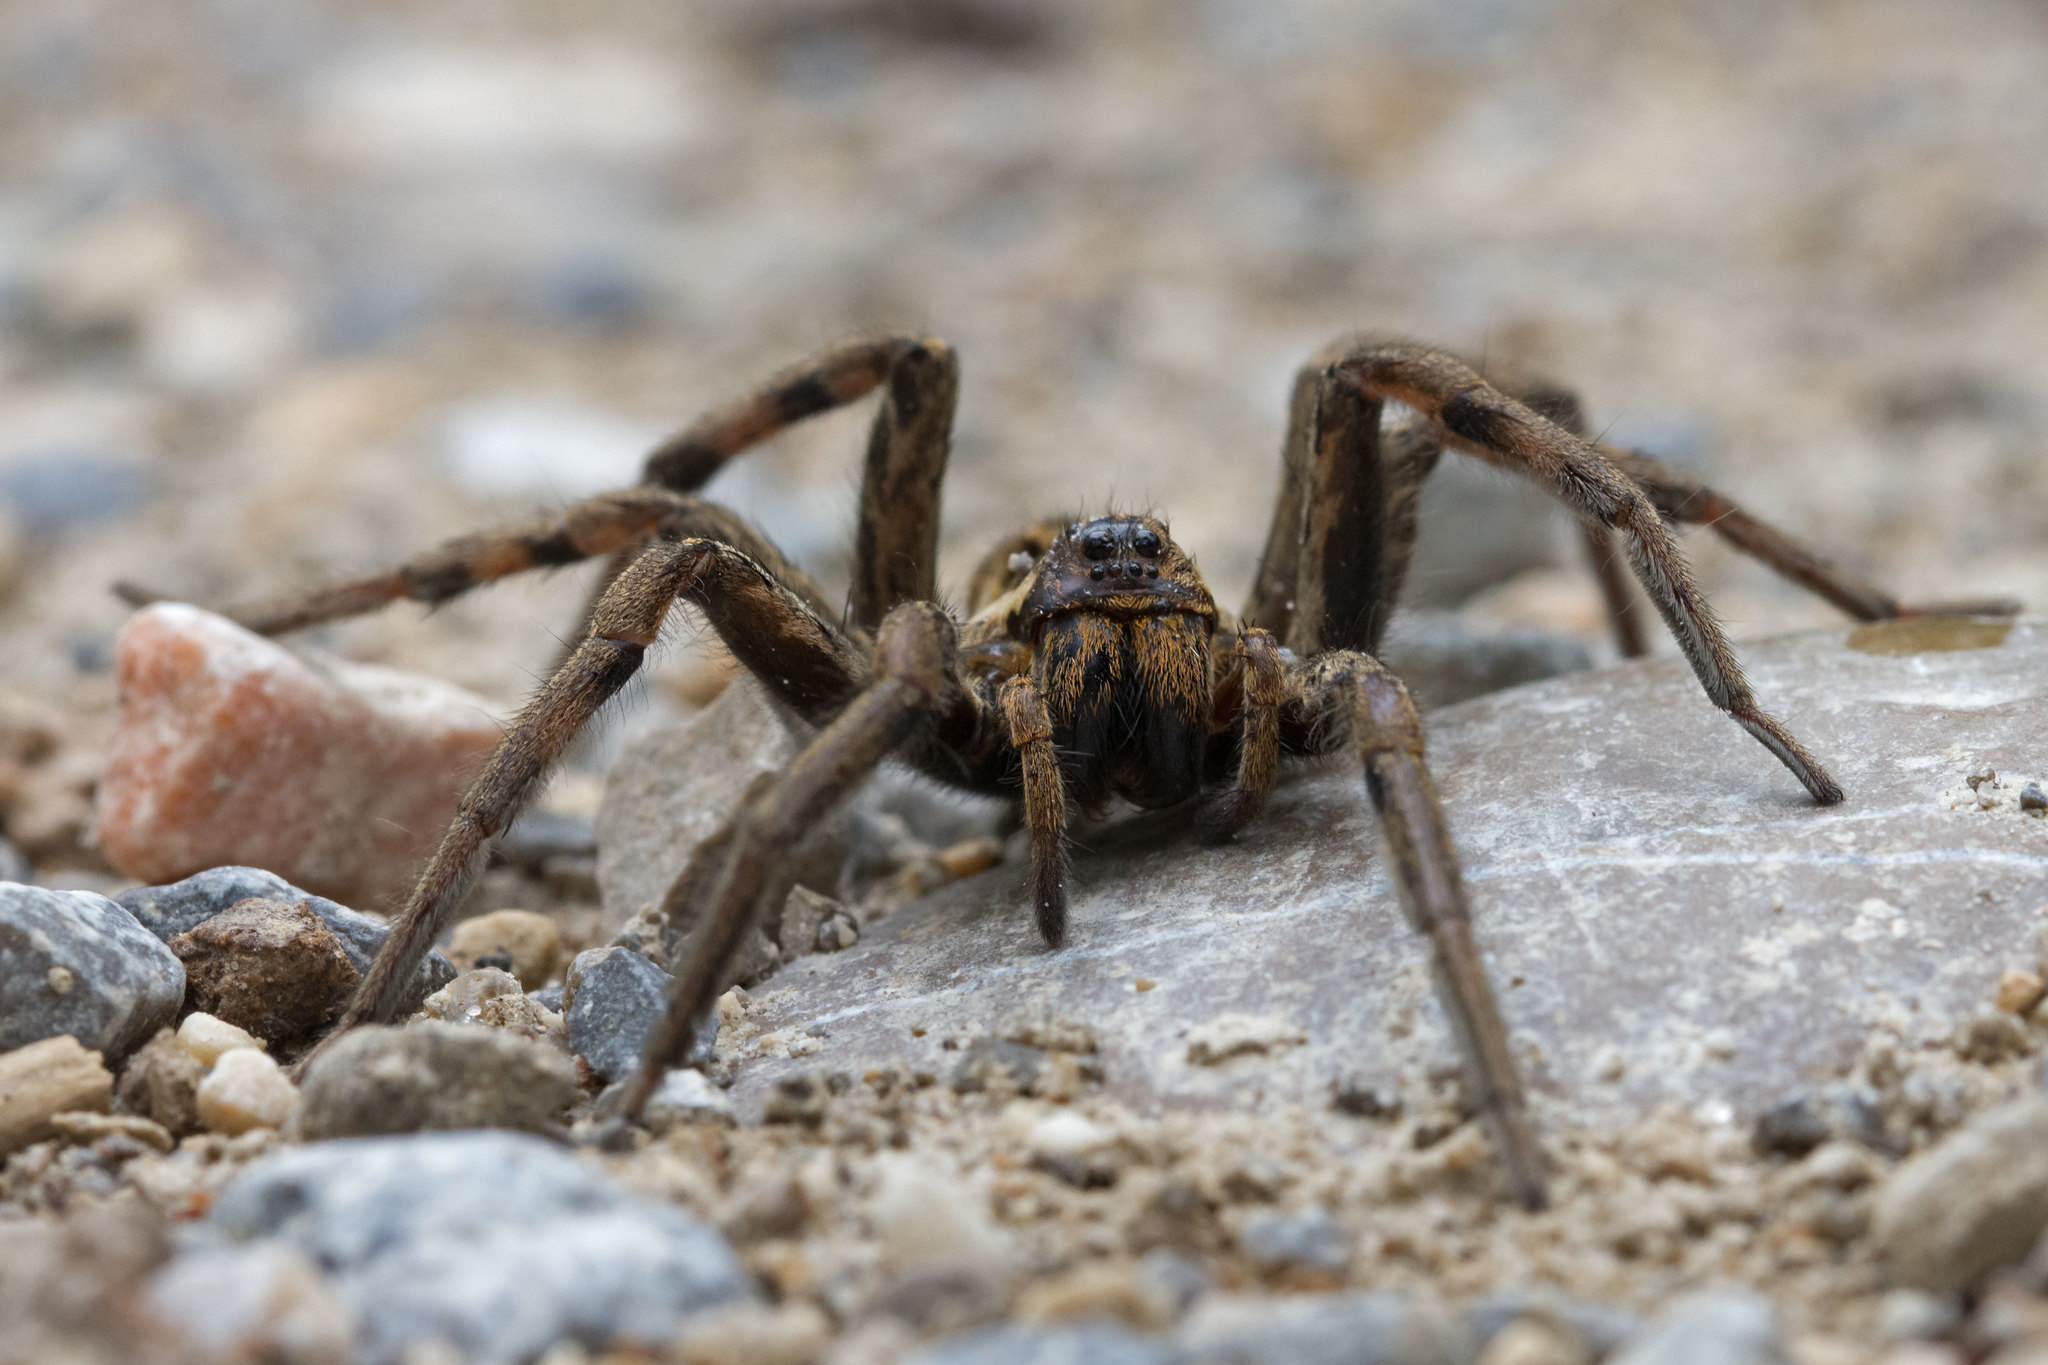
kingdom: Animalia
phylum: Arthropoda
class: Arachnida
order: Araneae
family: Lycosidae
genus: Hogna
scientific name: Hogna radiata
